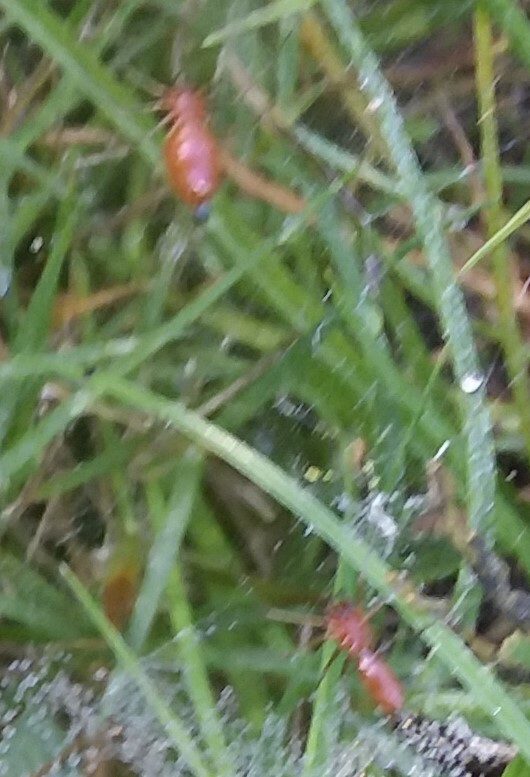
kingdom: Animalia
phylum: Arthropoda
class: Arachnida
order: Araneae
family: Linyphiidae
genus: Florinda
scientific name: Florinda coccinea
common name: Black-tailed red sheetweaver
